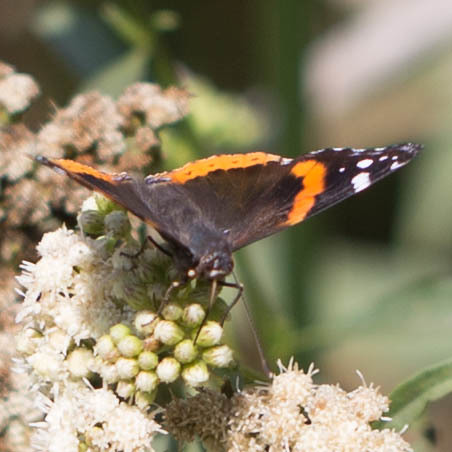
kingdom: Animalia
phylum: Arthropoda
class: Insecta
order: Lepidoptera
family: Nymphalidae
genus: Vanessa
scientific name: Vanessa atalanta
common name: Red admiral
